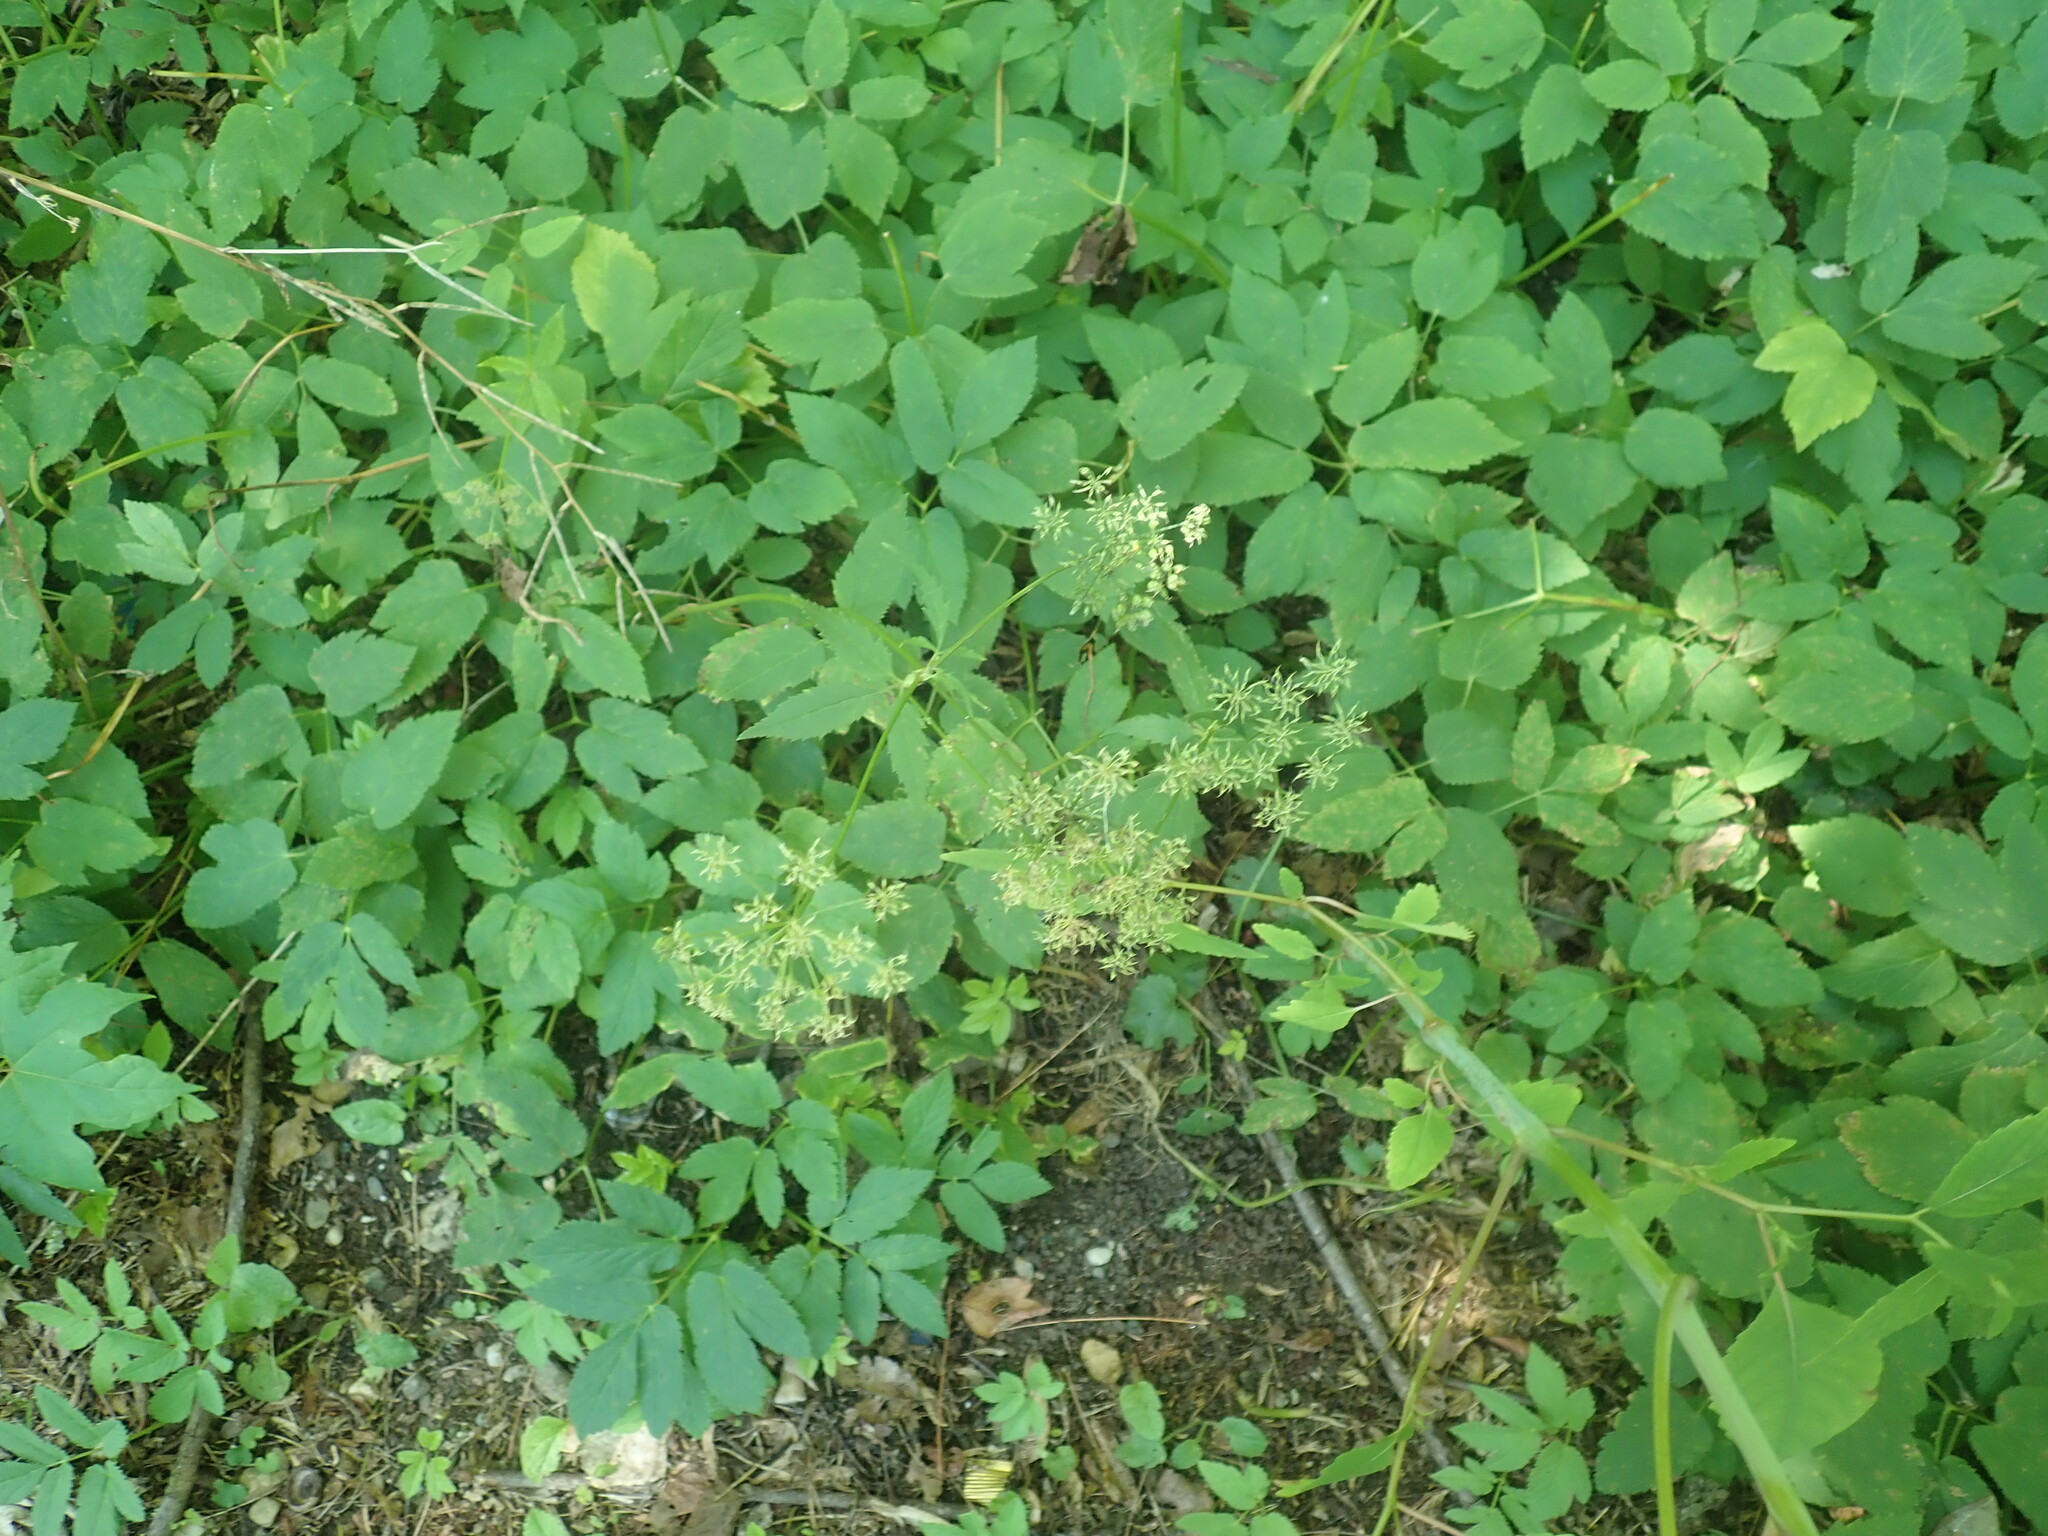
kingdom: Plantae
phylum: Tracheophyta
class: Magnoliopsida
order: Apiales
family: Apiaceae
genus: Aegopodium
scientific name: Aegopodium podagraria
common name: Ground-elder
